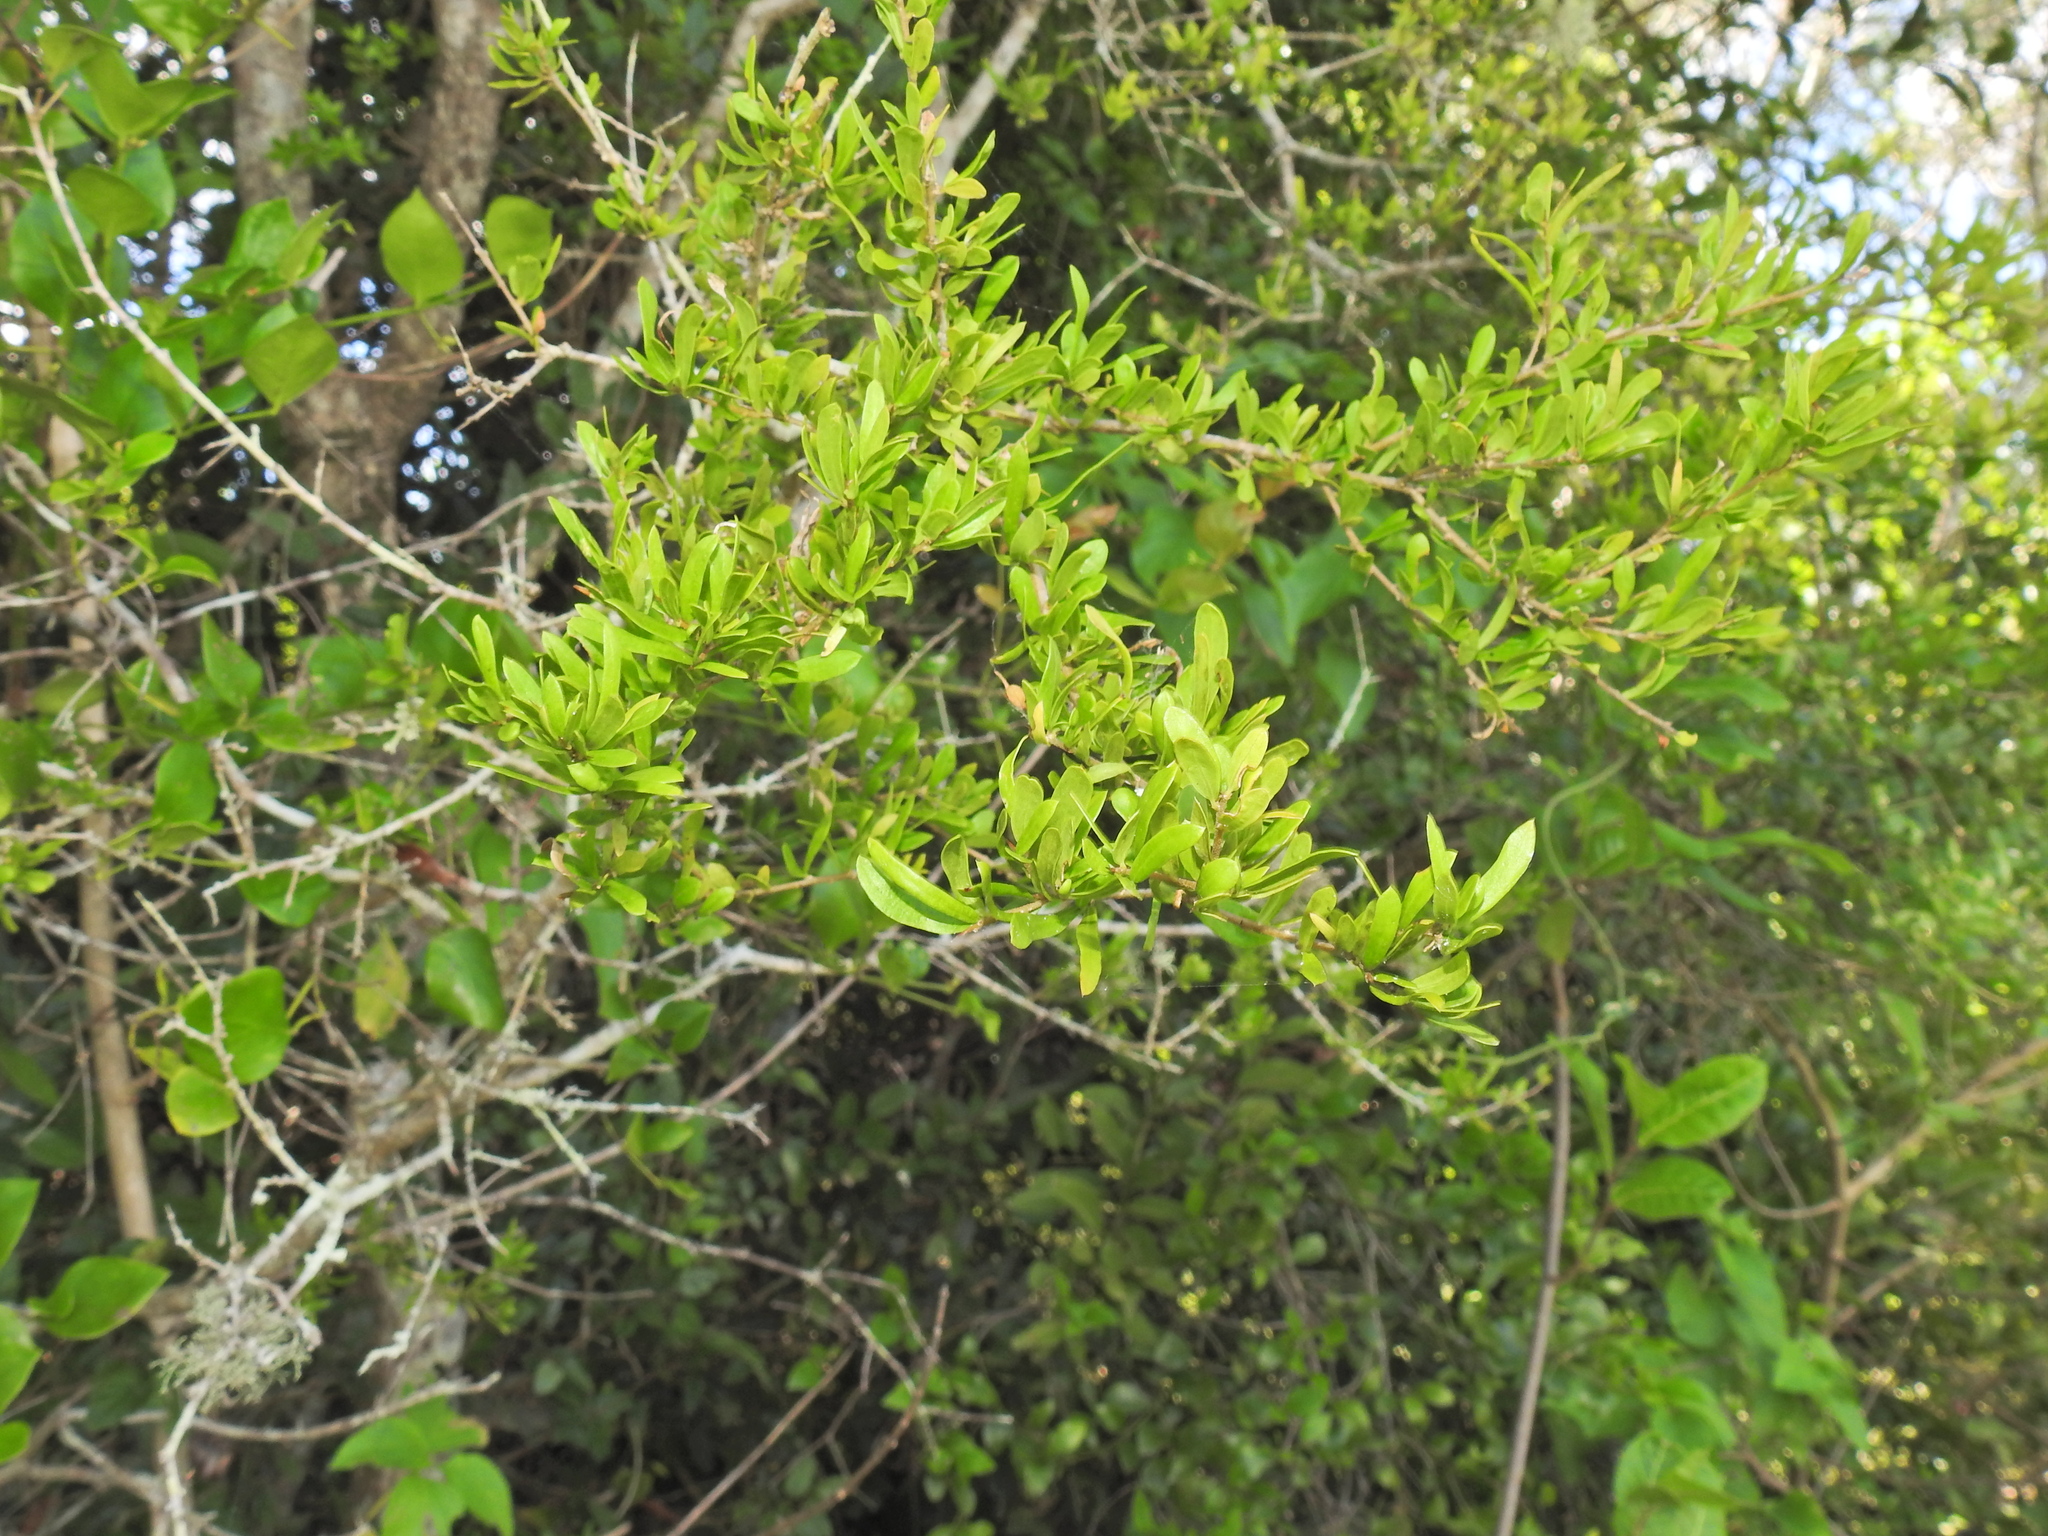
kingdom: Plantae
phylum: Tracheophyta
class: Magnoliopsida
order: Apiales
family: Pittosporaceae
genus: Pittosporum
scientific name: Pittosporum viscidum
